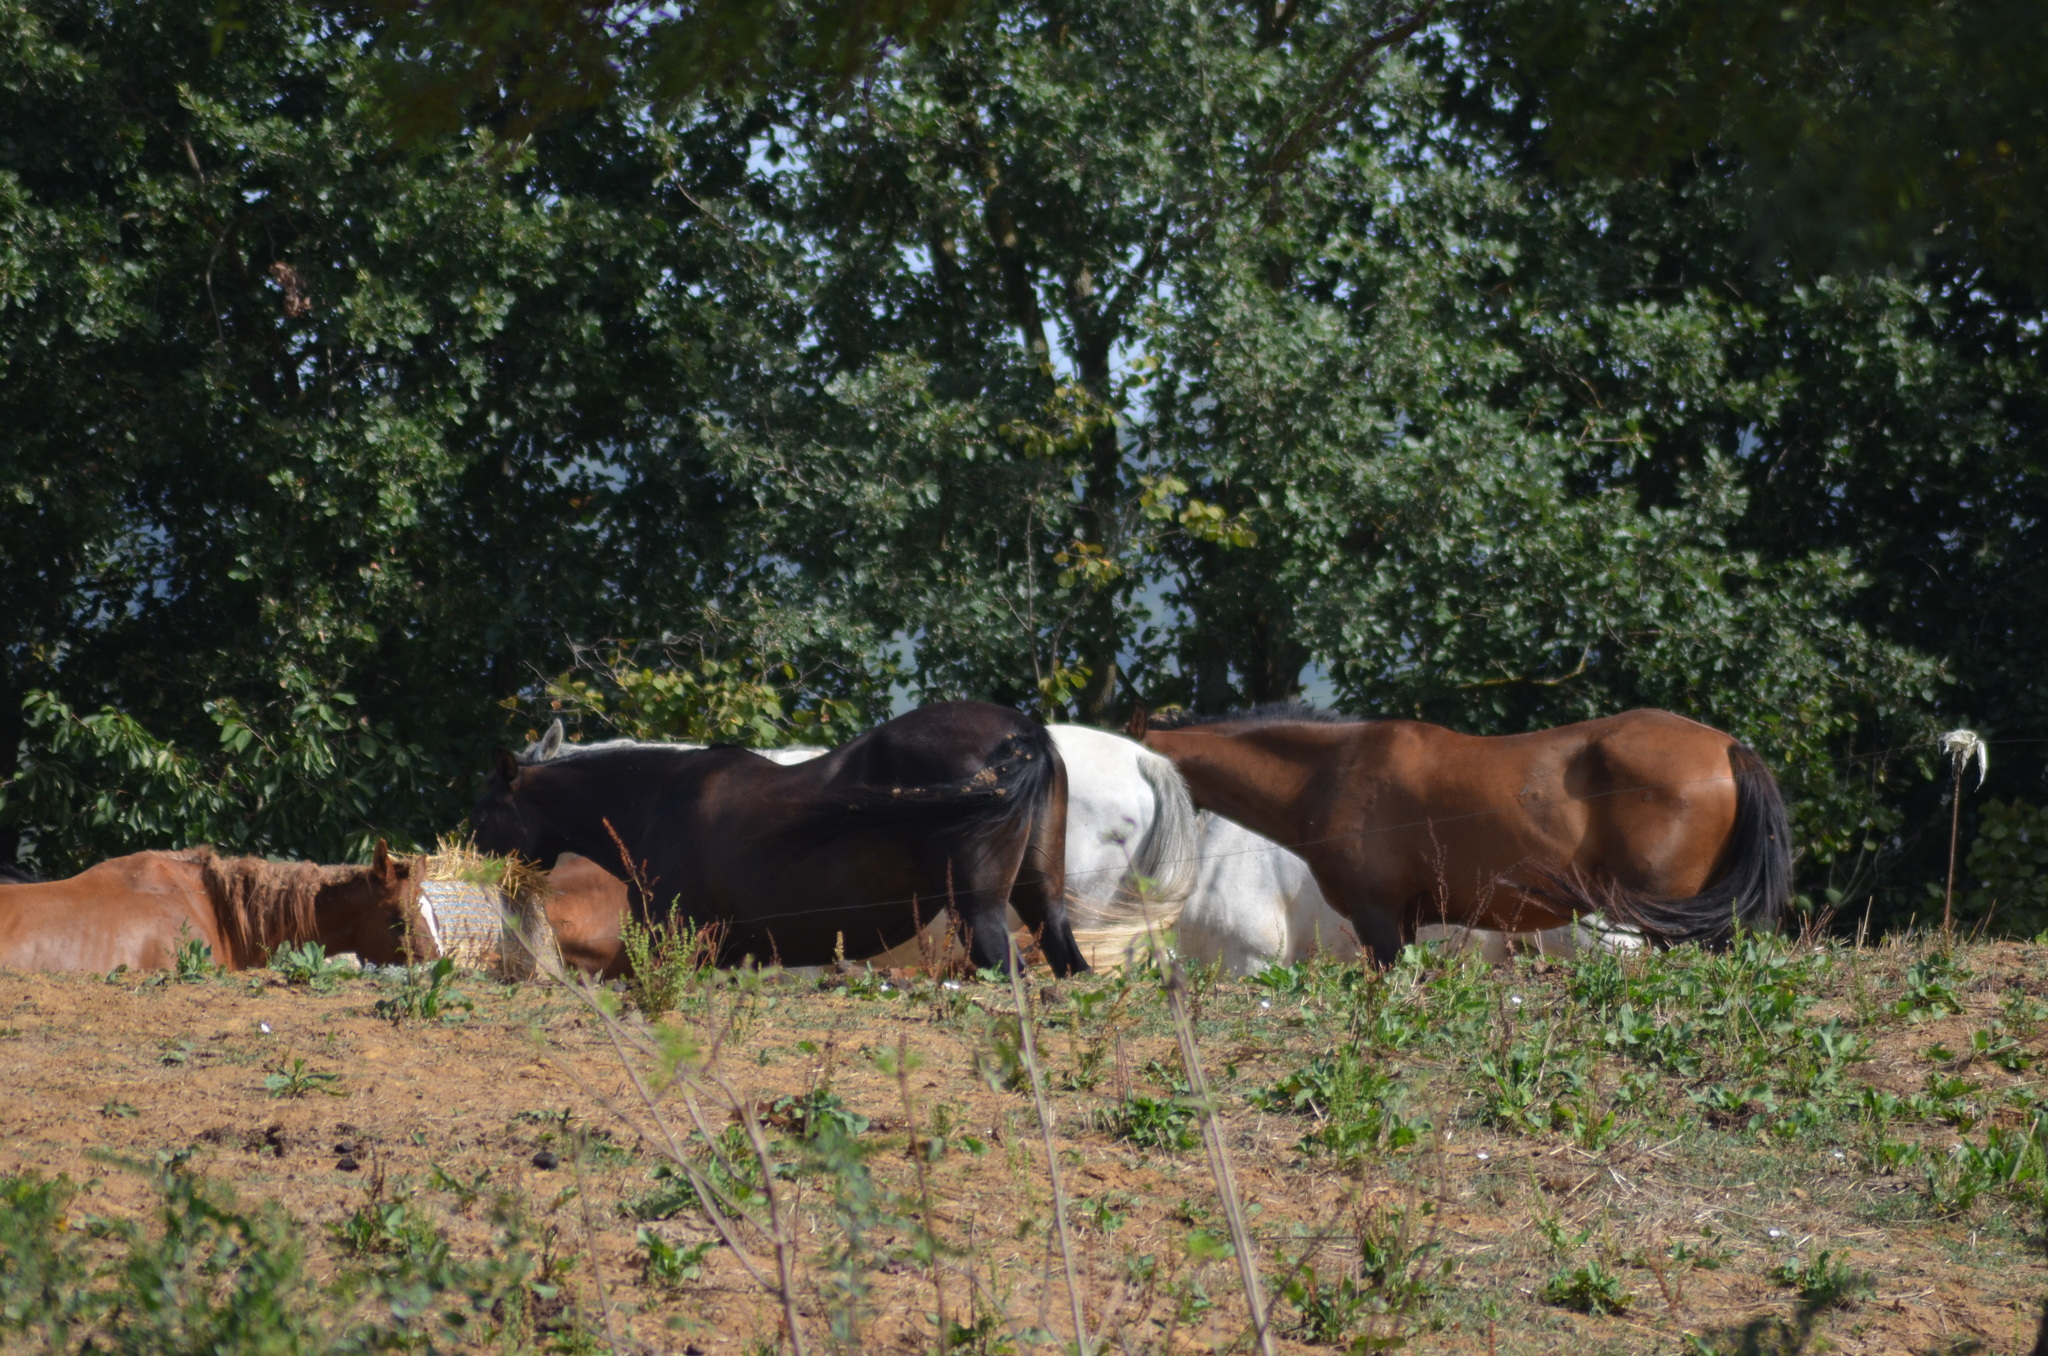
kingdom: Animalia
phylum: Chordata
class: Mammalia
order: Perissodactyla
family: Equidae
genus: Equus
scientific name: Equus caballus
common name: Horse
